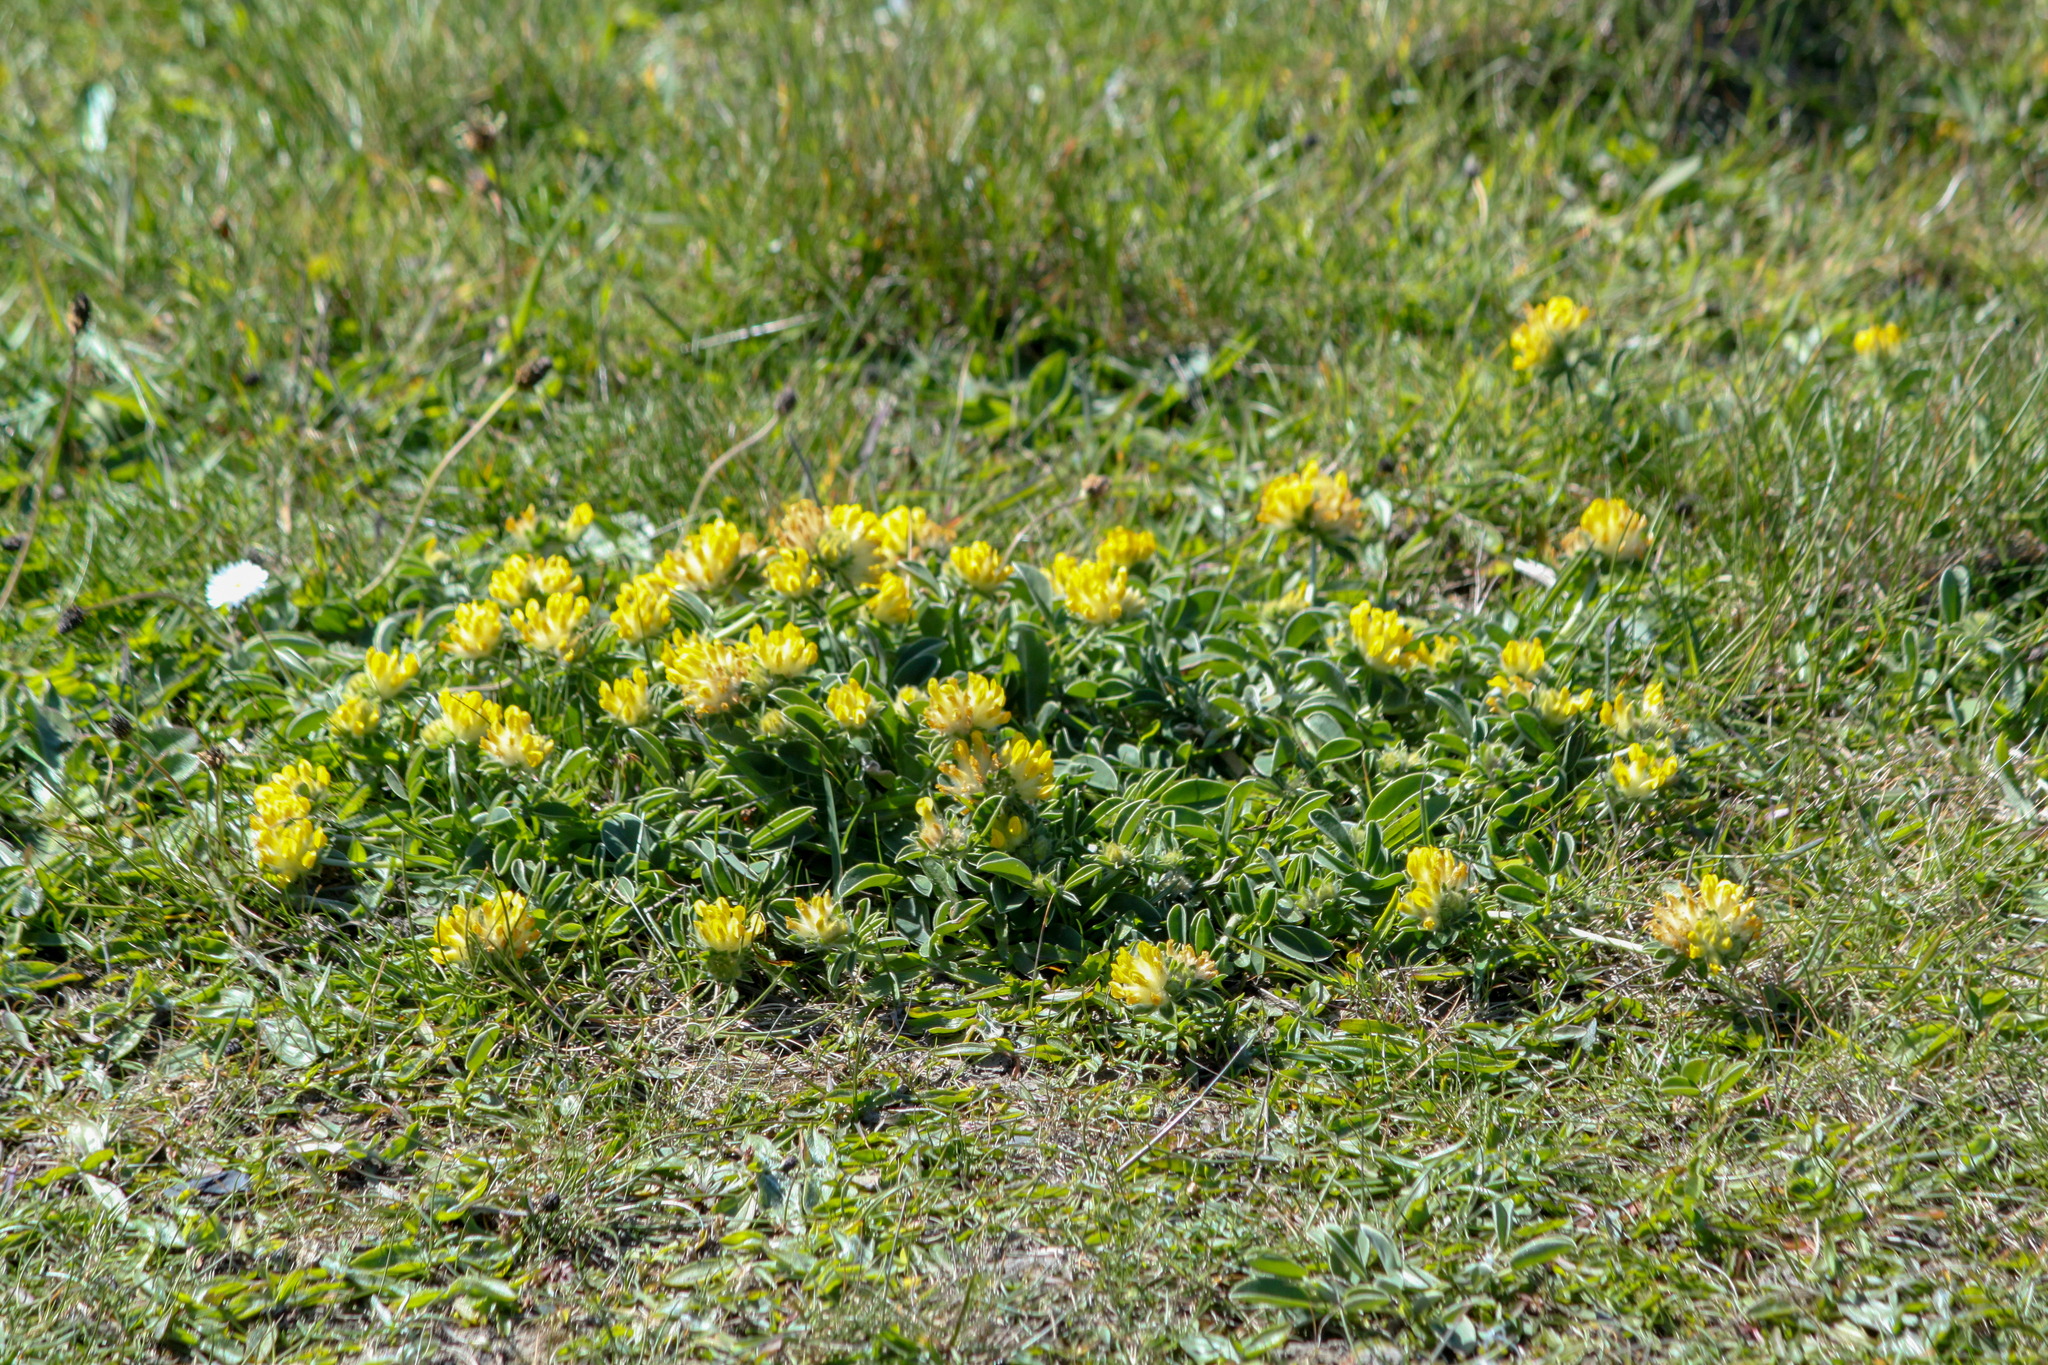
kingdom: Plantae
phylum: Tracheophyta
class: Magnoliopsida
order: Fabales
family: Fabaceae
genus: Anthyllis
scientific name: Anthyllis vulneraria
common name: Kidney vetch
